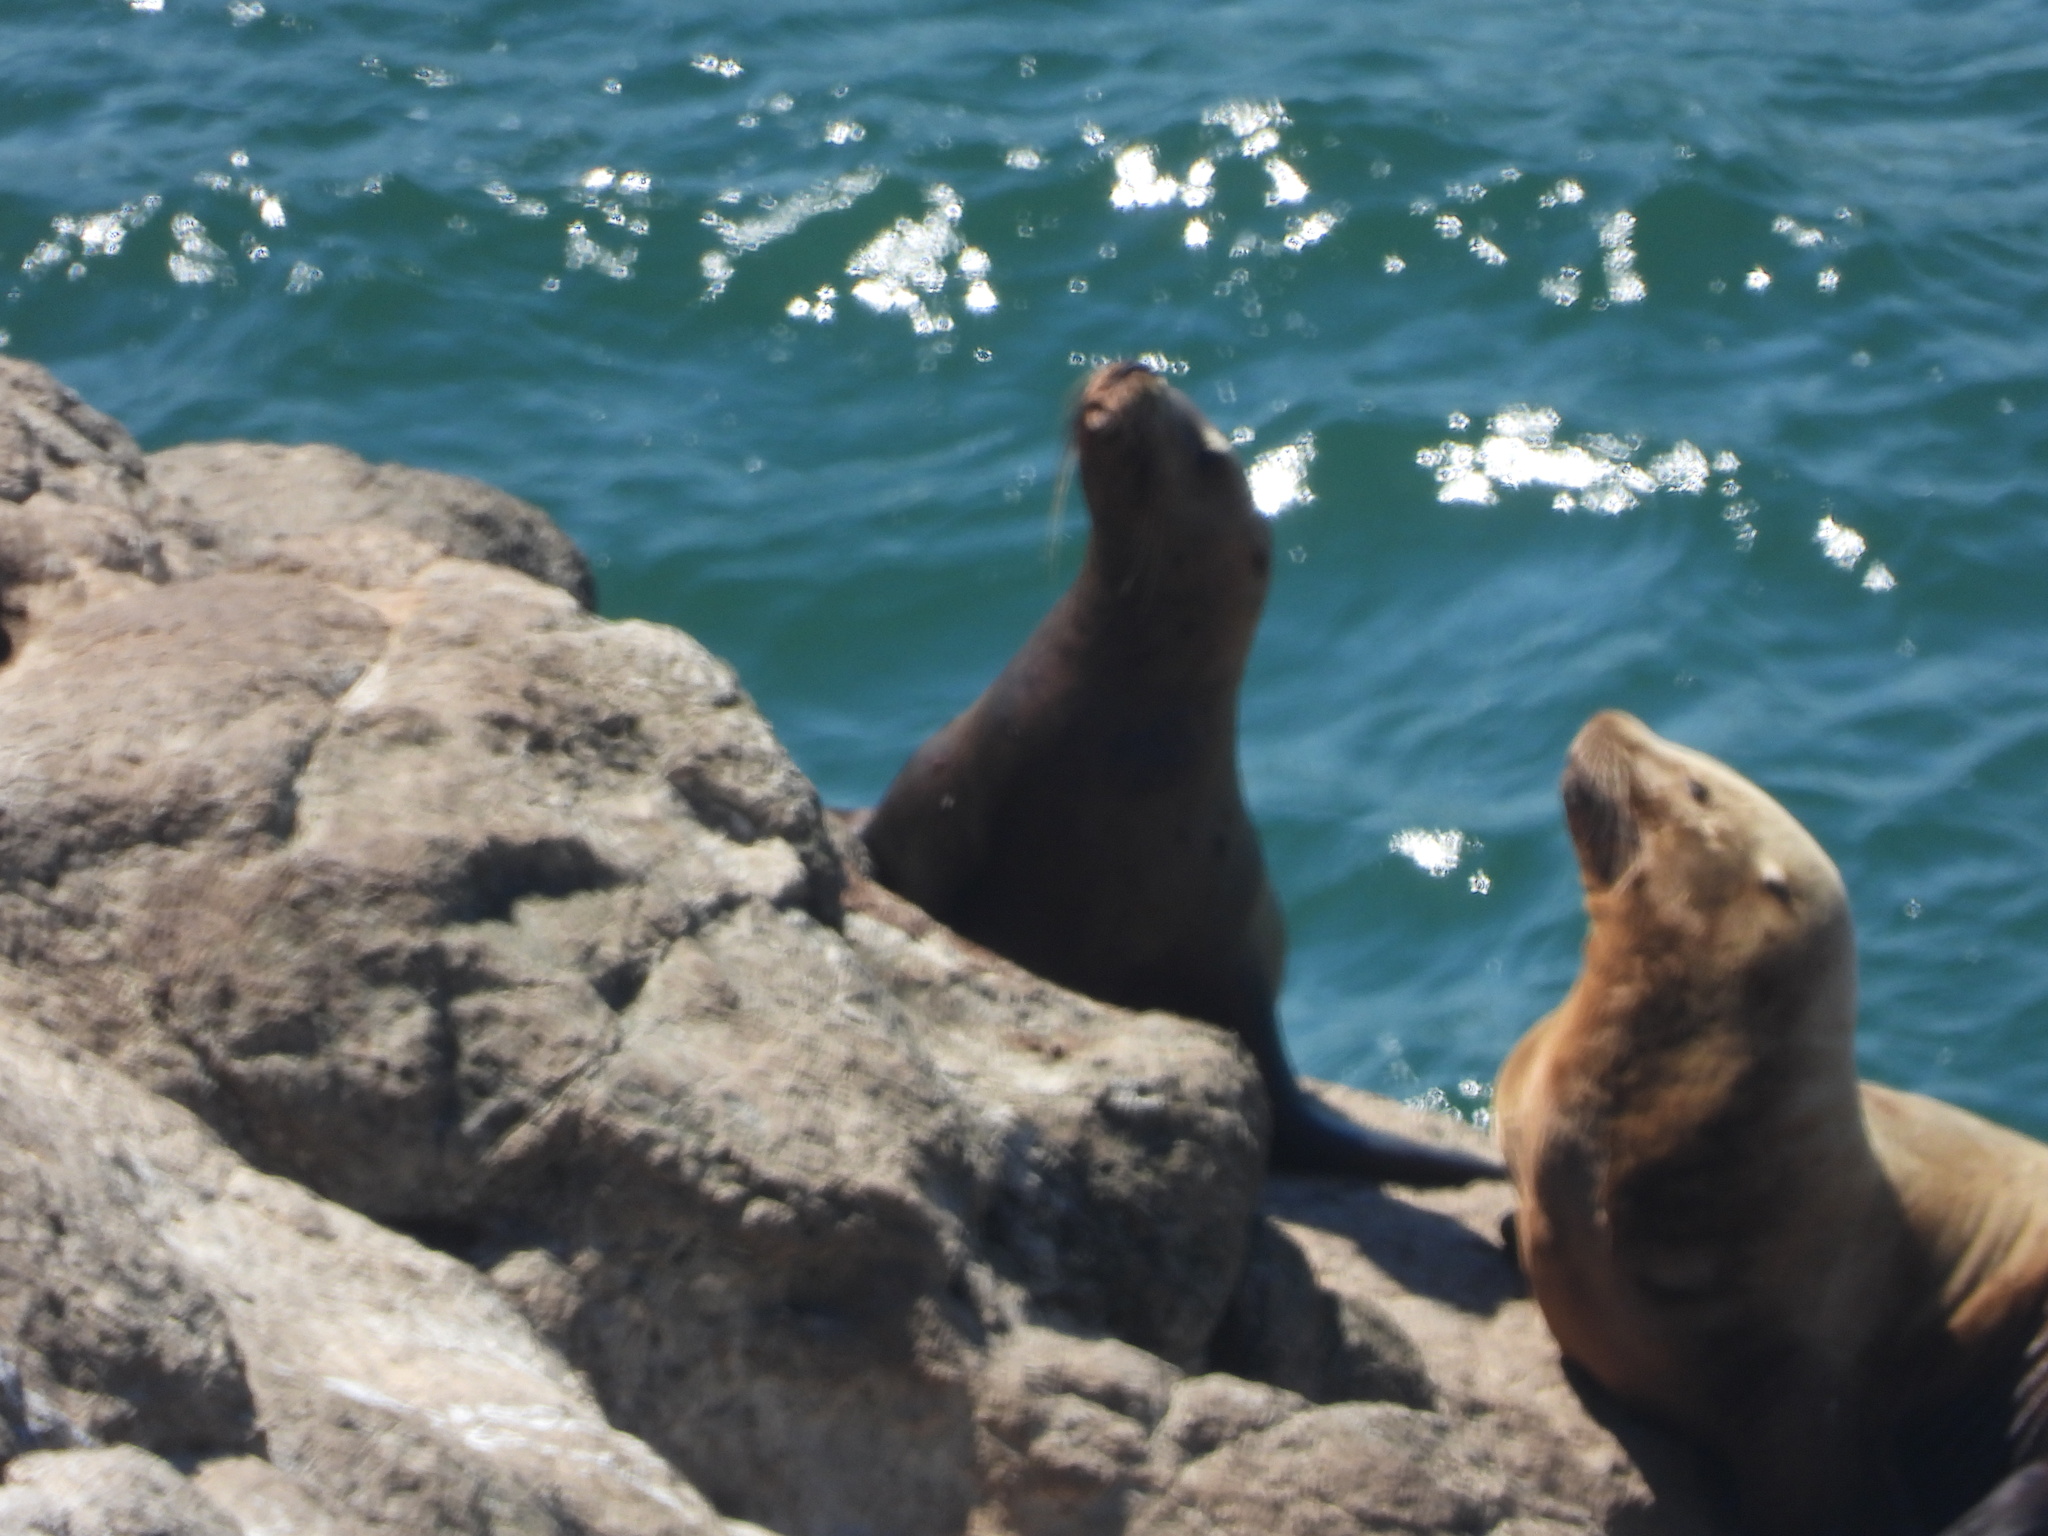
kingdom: Animalia
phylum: Chordata
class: Mammalia
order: Carnivora
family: Otariidae
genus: Eumetopias
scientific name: Eumetopias jubatus
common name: Steller sea lion
